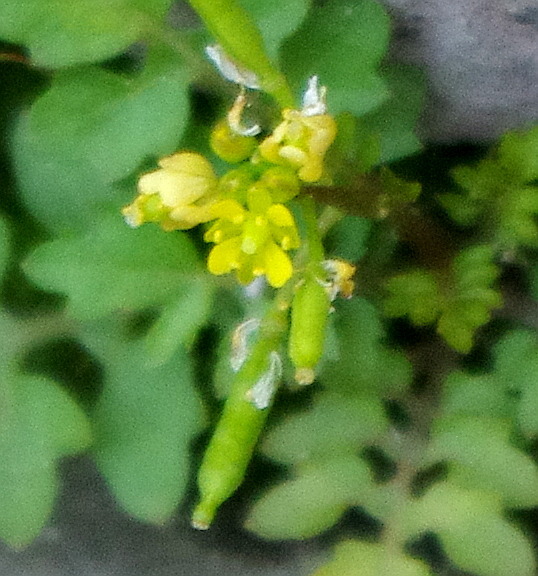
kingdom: Plantae
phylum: Tracheophyta
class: Magnoliopsida
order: Brassicales
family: Brassicaceae
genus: Rorippa
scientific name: Rorippa palustris
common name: Marsh yellow-cress
